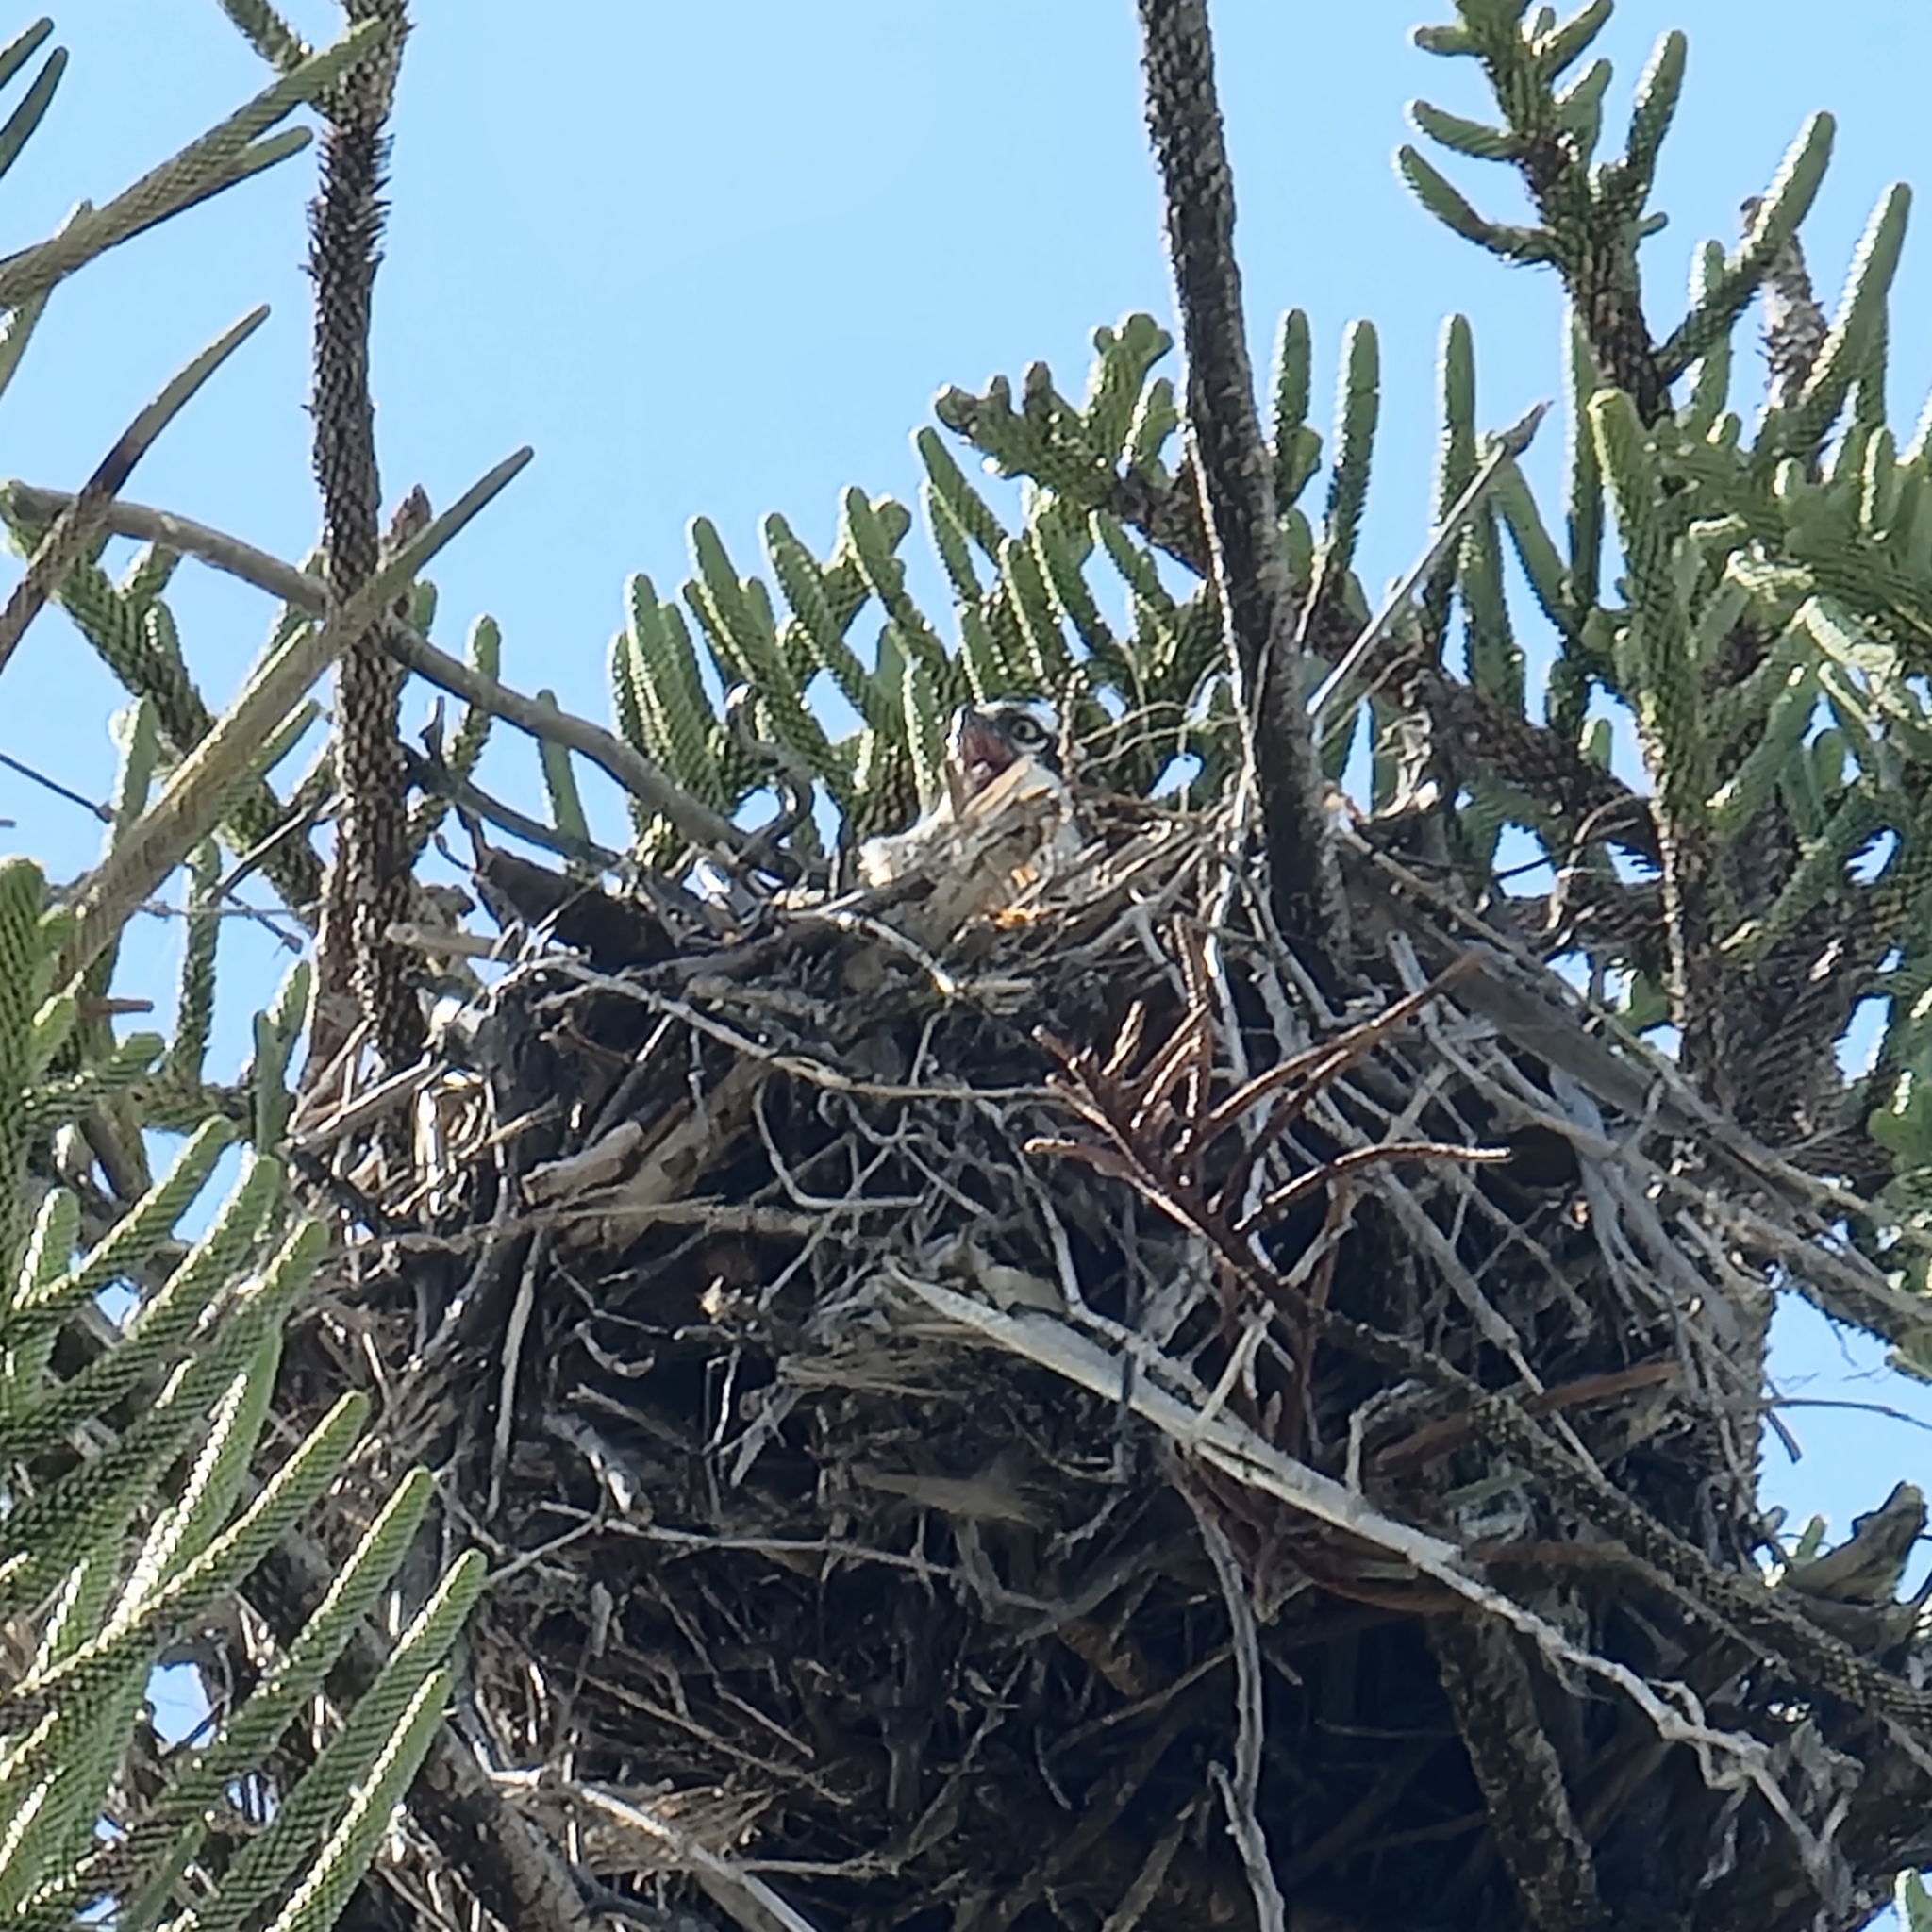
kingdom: Animalia
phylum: Chordata
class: Aves
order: Accipitriformes
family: Pandionidae
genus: Pandion
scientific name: Pandion haliaetus
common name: Osprey
